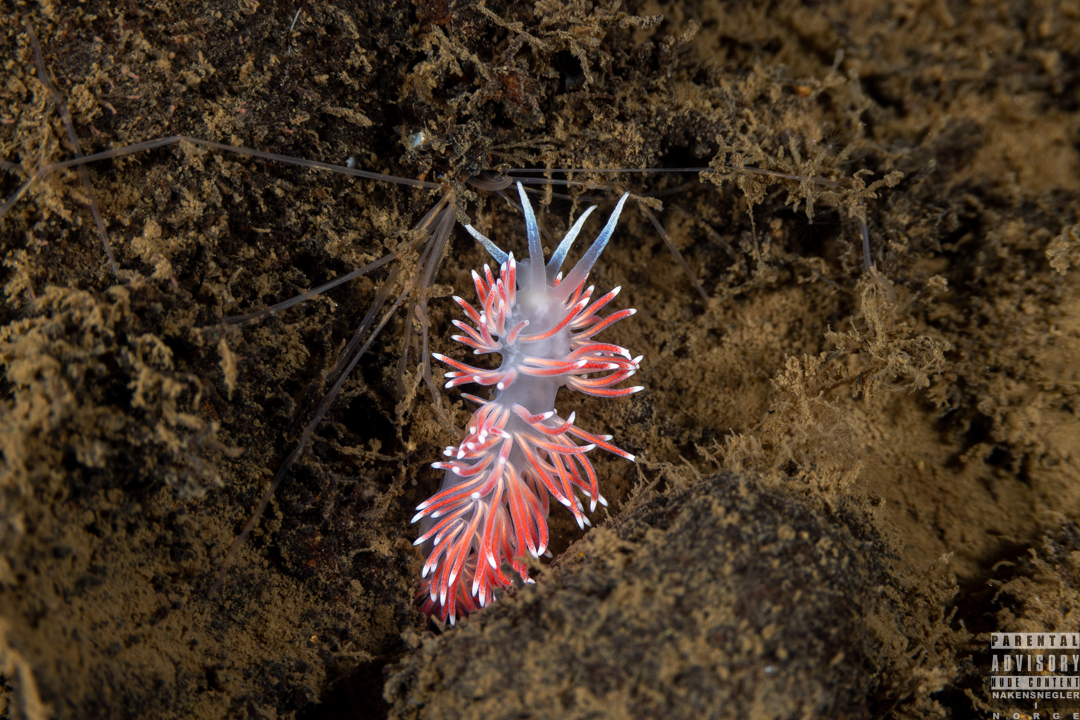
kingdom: Animalia
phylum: Mollusca
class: Gastropoda
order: Nudibranchia
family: Flabellinidae
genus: Carronella
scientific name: Carronella pellucida
